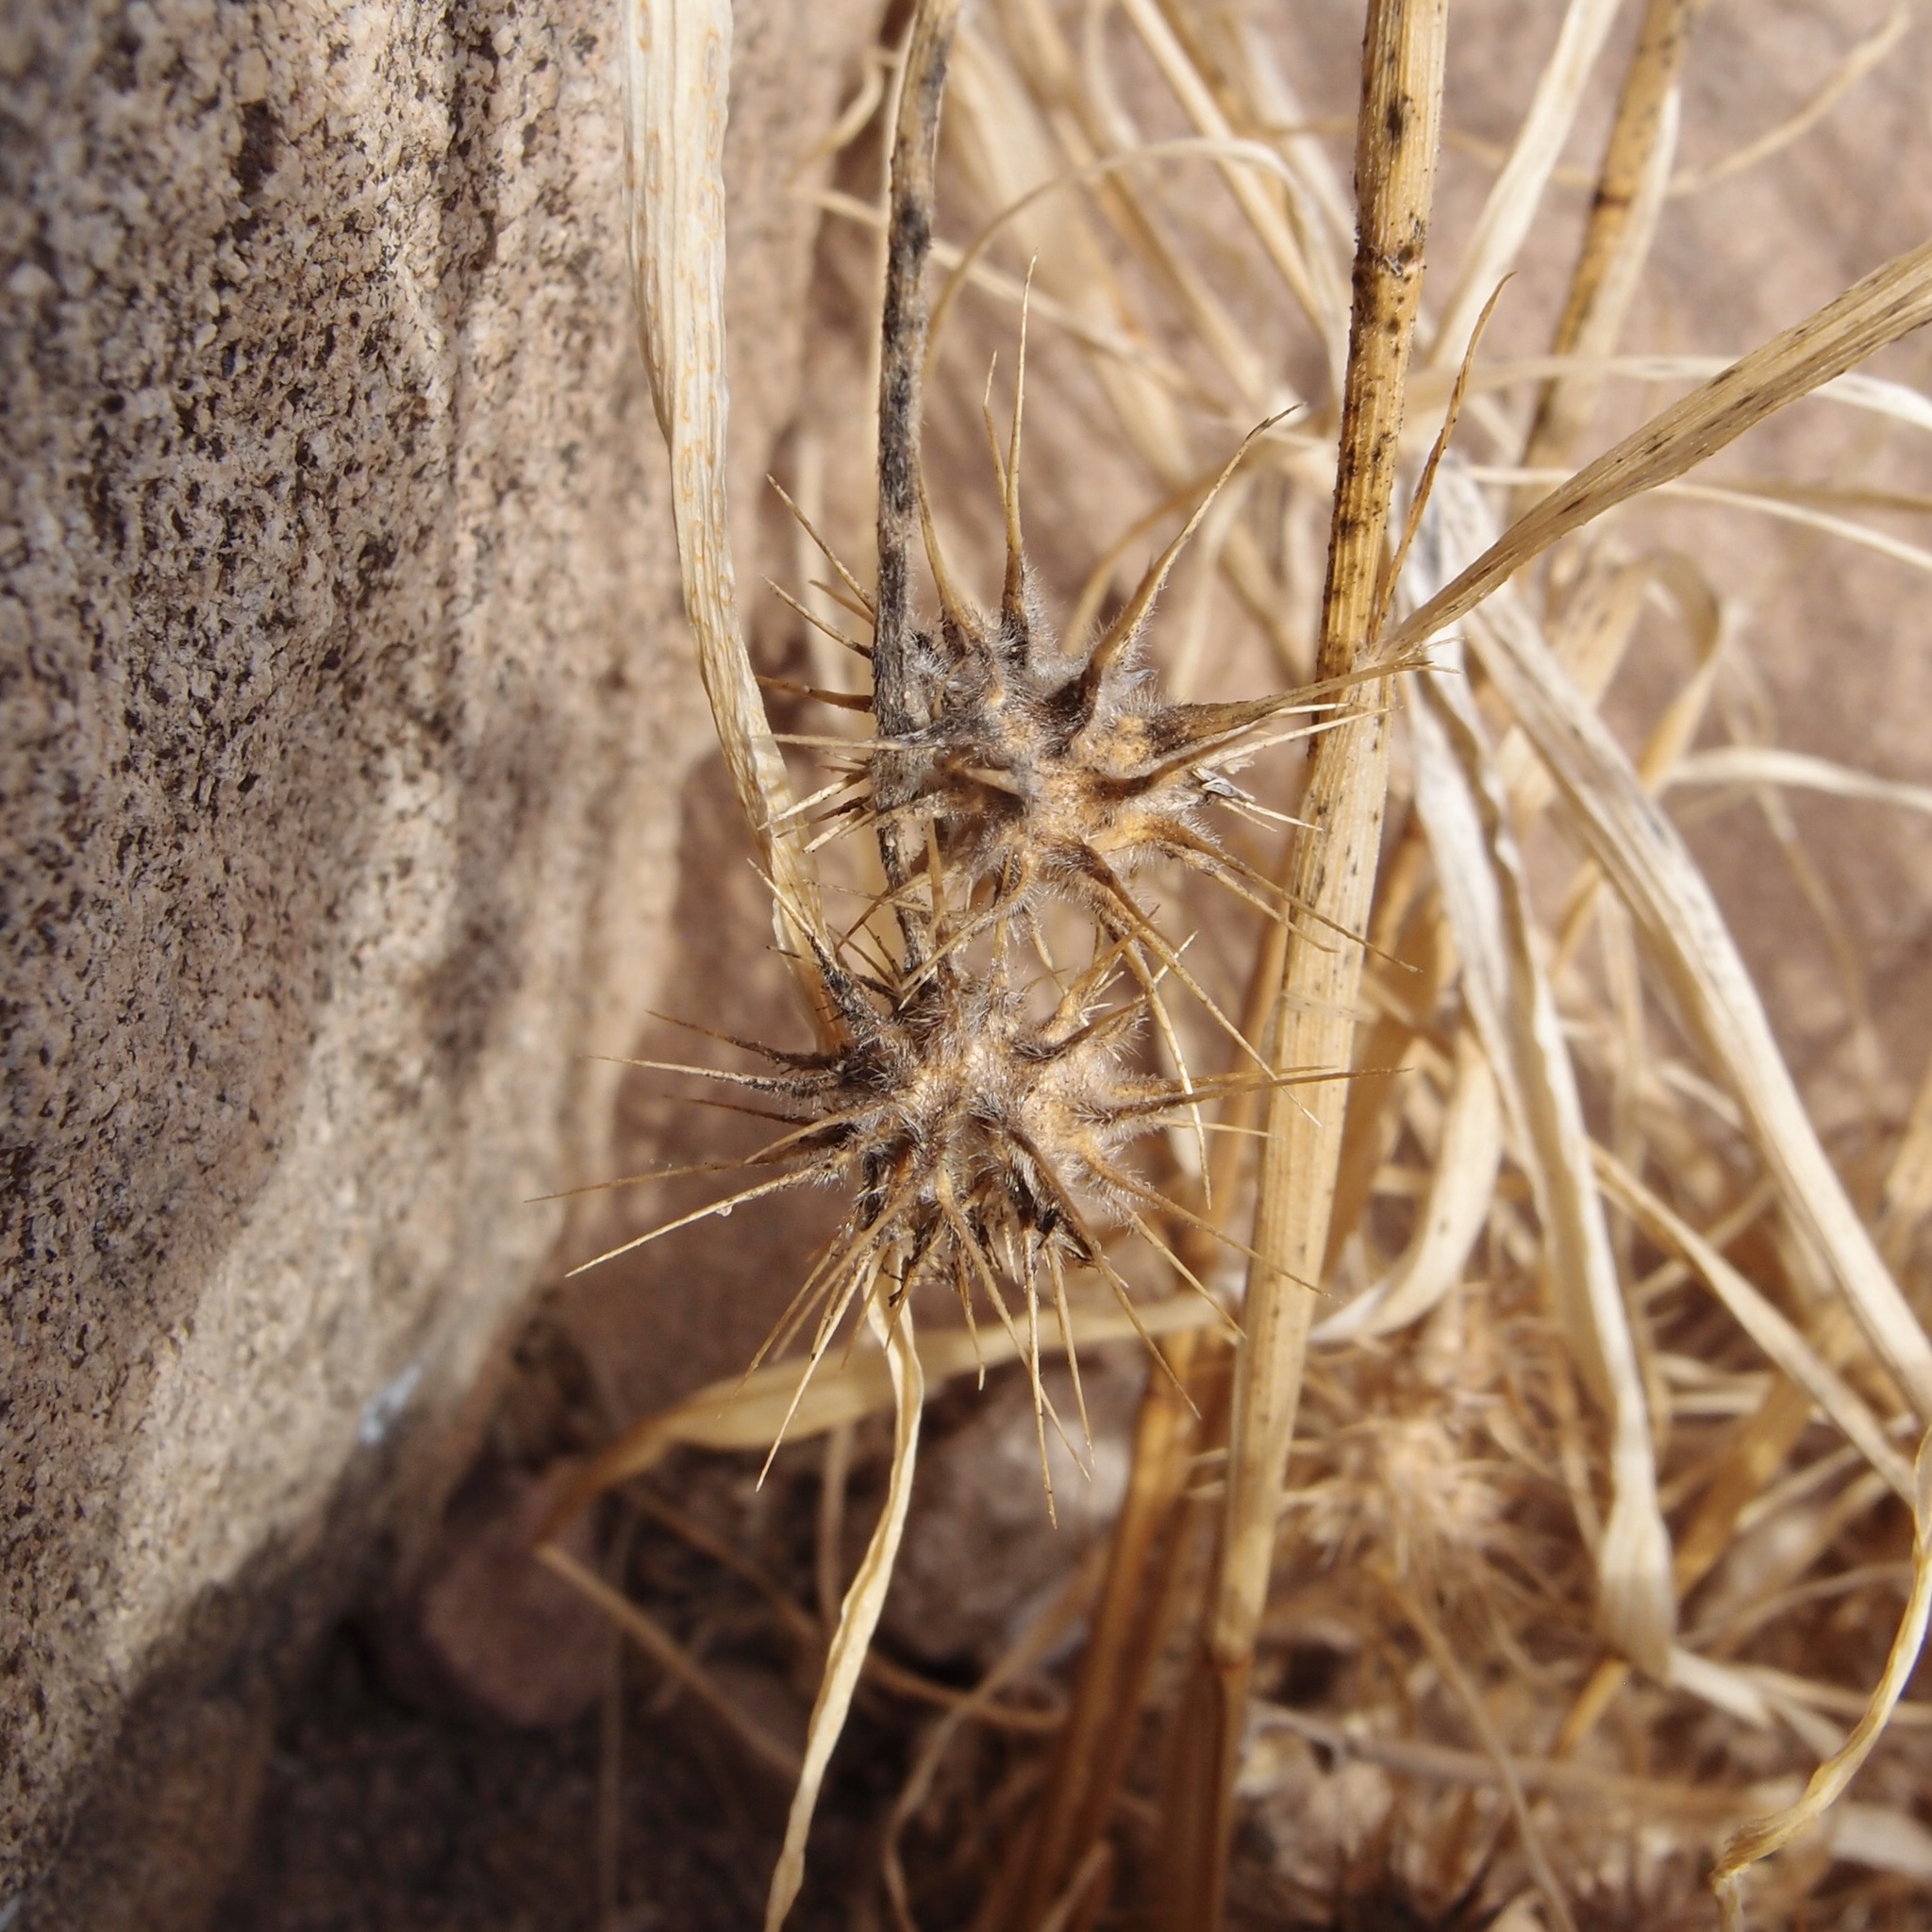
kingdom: Plantae
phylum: Tracheophyta
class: Liliopsida
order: Poales
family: Poaceae
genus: Cenchrus
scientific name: Cenchrus palmeri
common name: Giant sandbur
